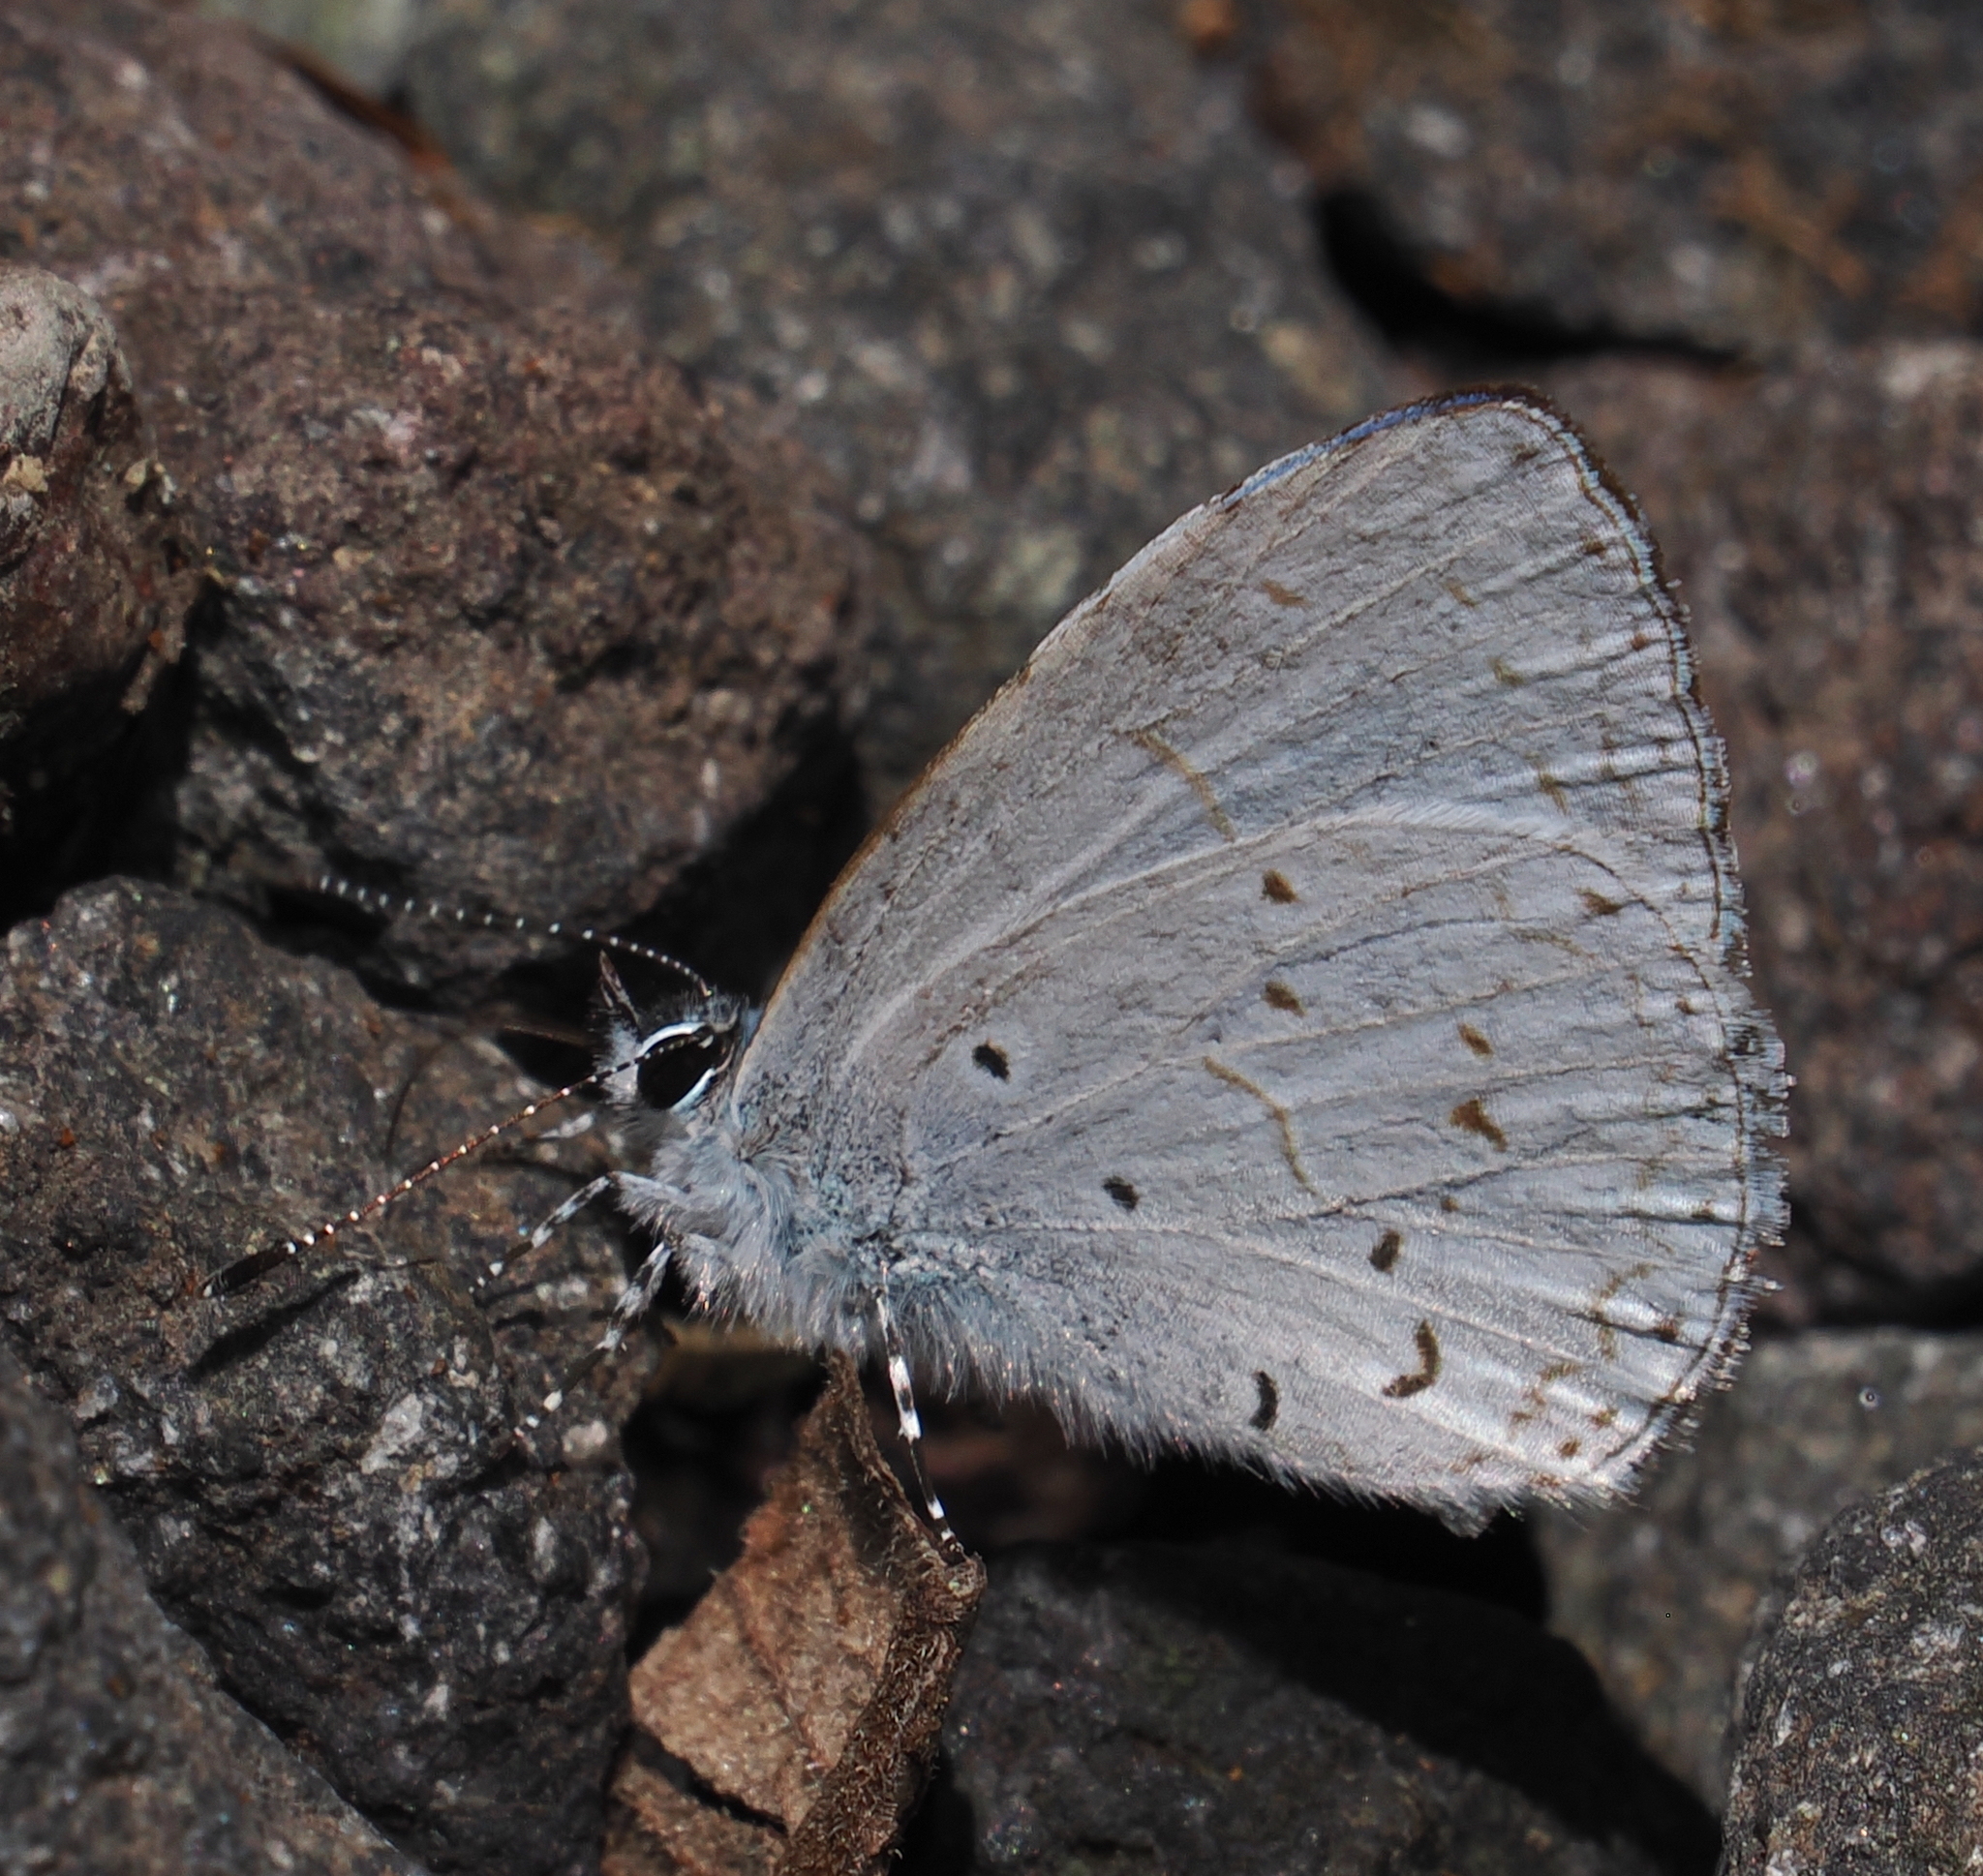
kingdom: Animalia
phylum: Arthropoda
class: Insecta
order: Lepidoptera
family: Lycaenidae
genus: Udara
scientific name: Udara dilectus
